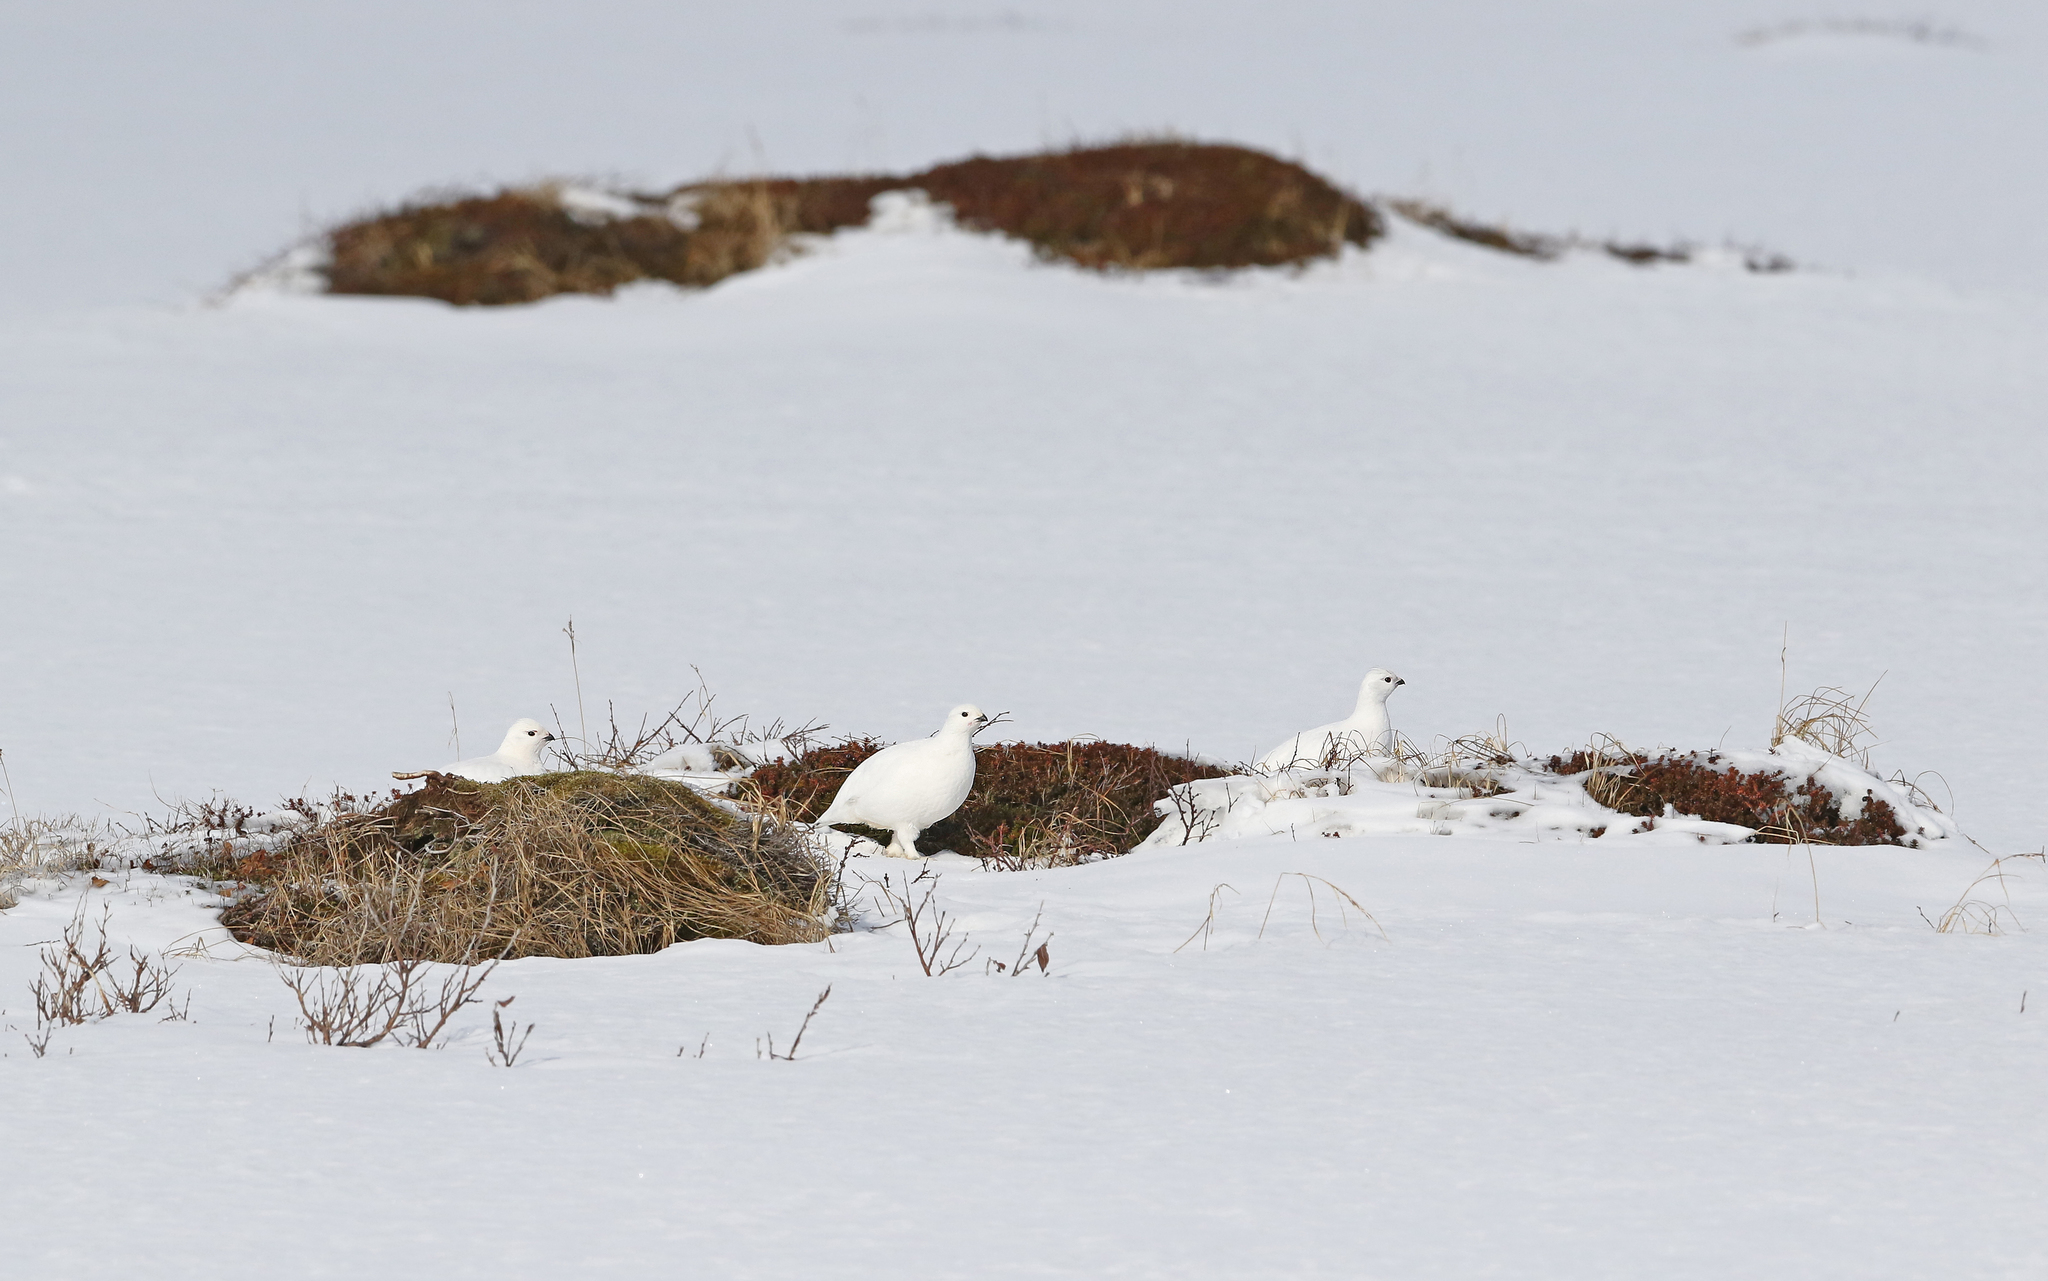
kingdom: Animalia
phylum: Chordata
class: Aves
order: Galliformes
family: Phasianidae
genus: Lagopus
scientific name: Lagopus lagopus
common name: Willow ptarmigan
